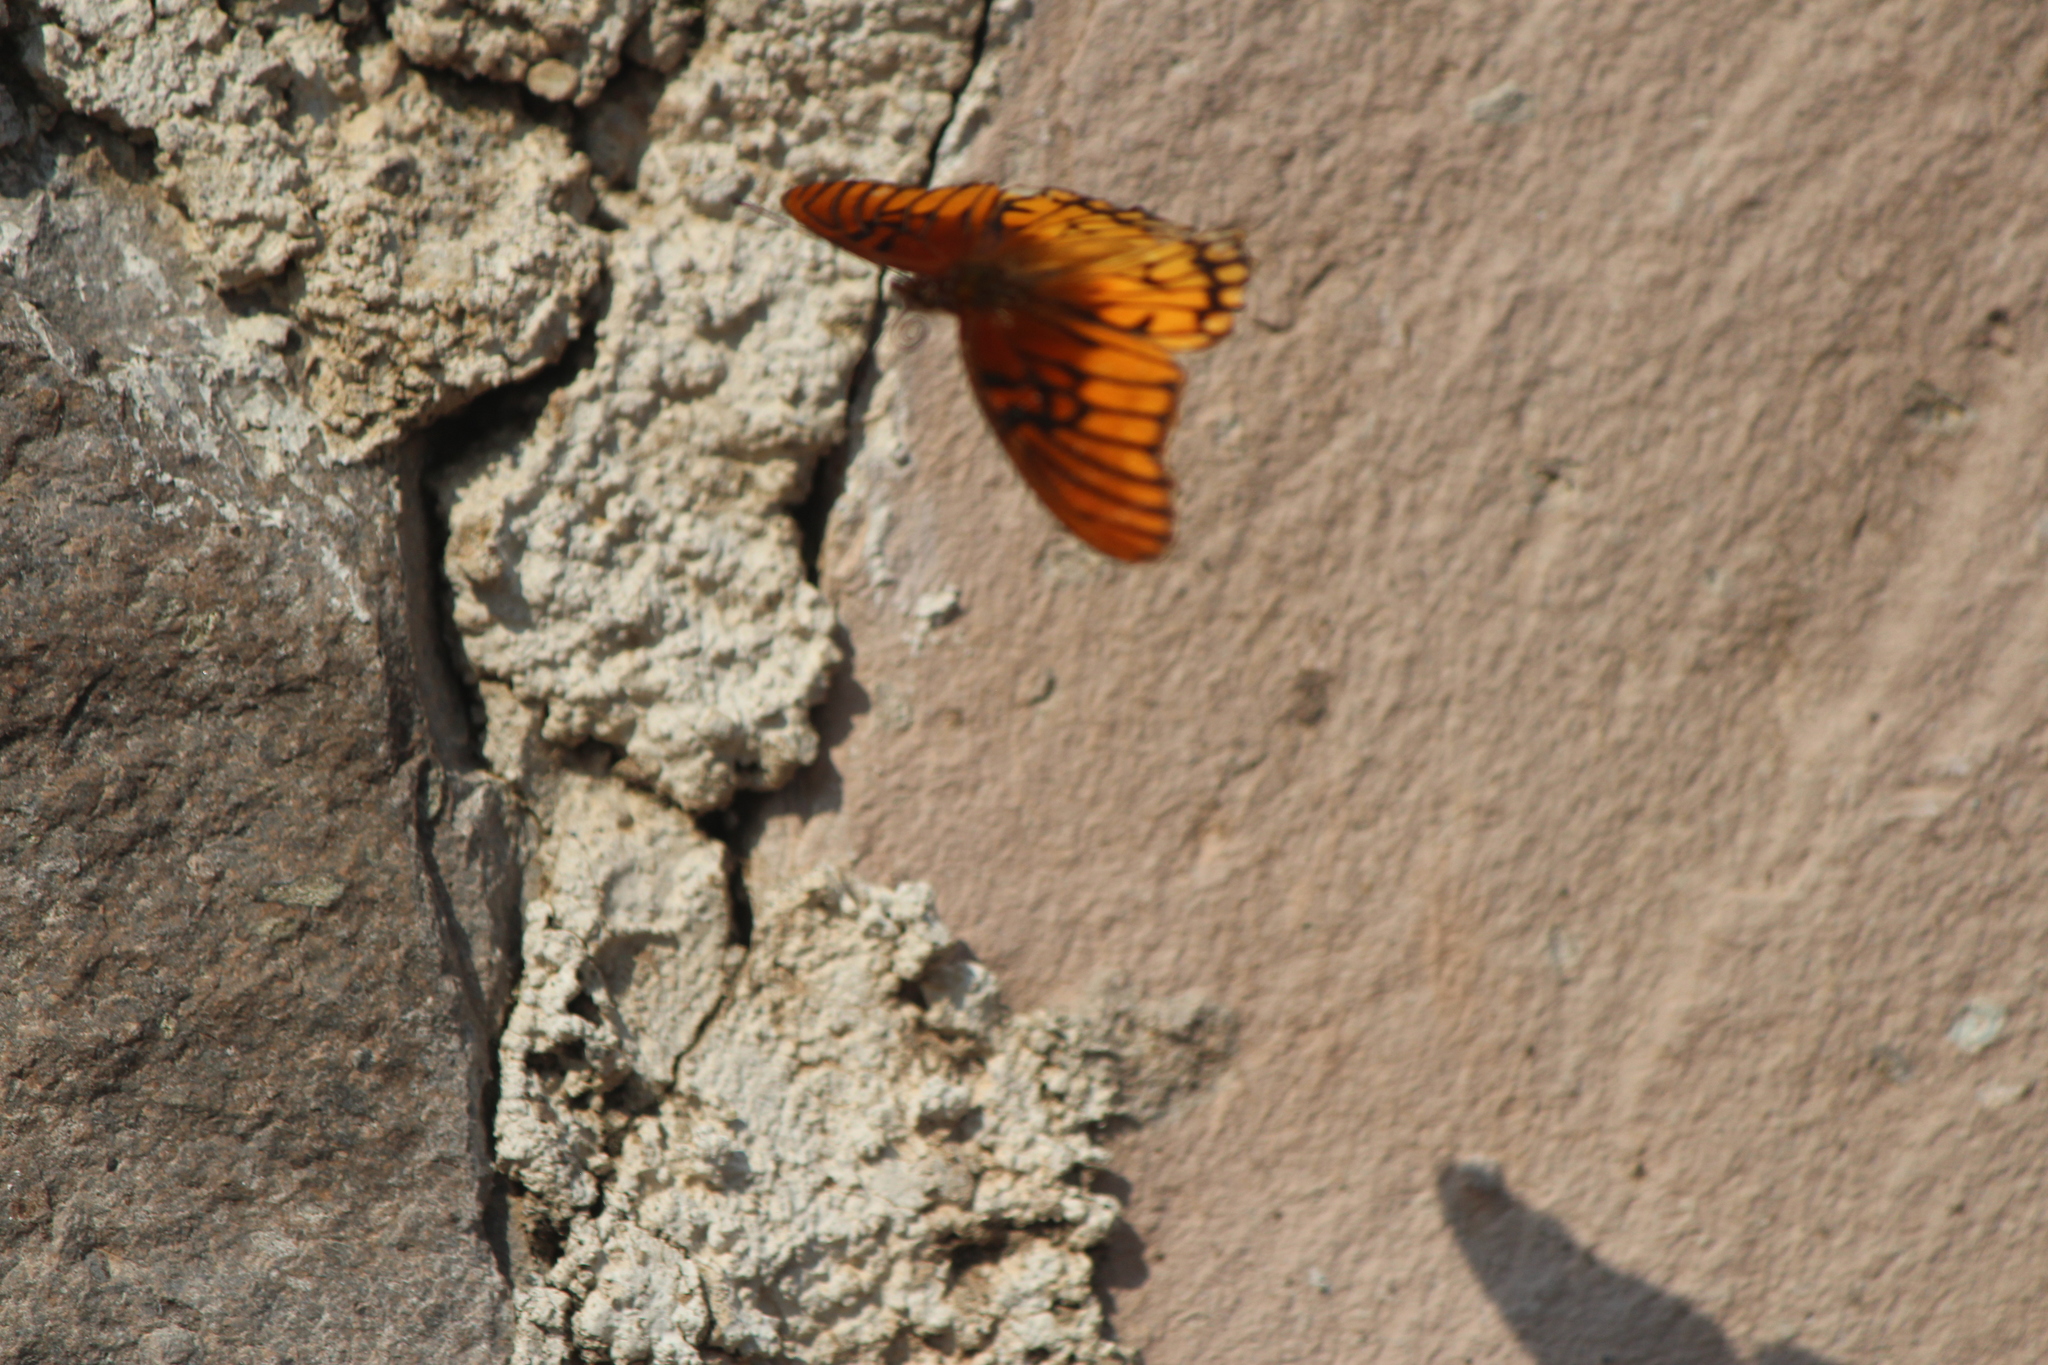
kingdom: Animalia
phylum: Arthropoda
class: Insecta
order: Lepidoptera
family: Nymphalidae
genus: Dione
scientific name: Dione moneta
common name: Mexican silverspot
